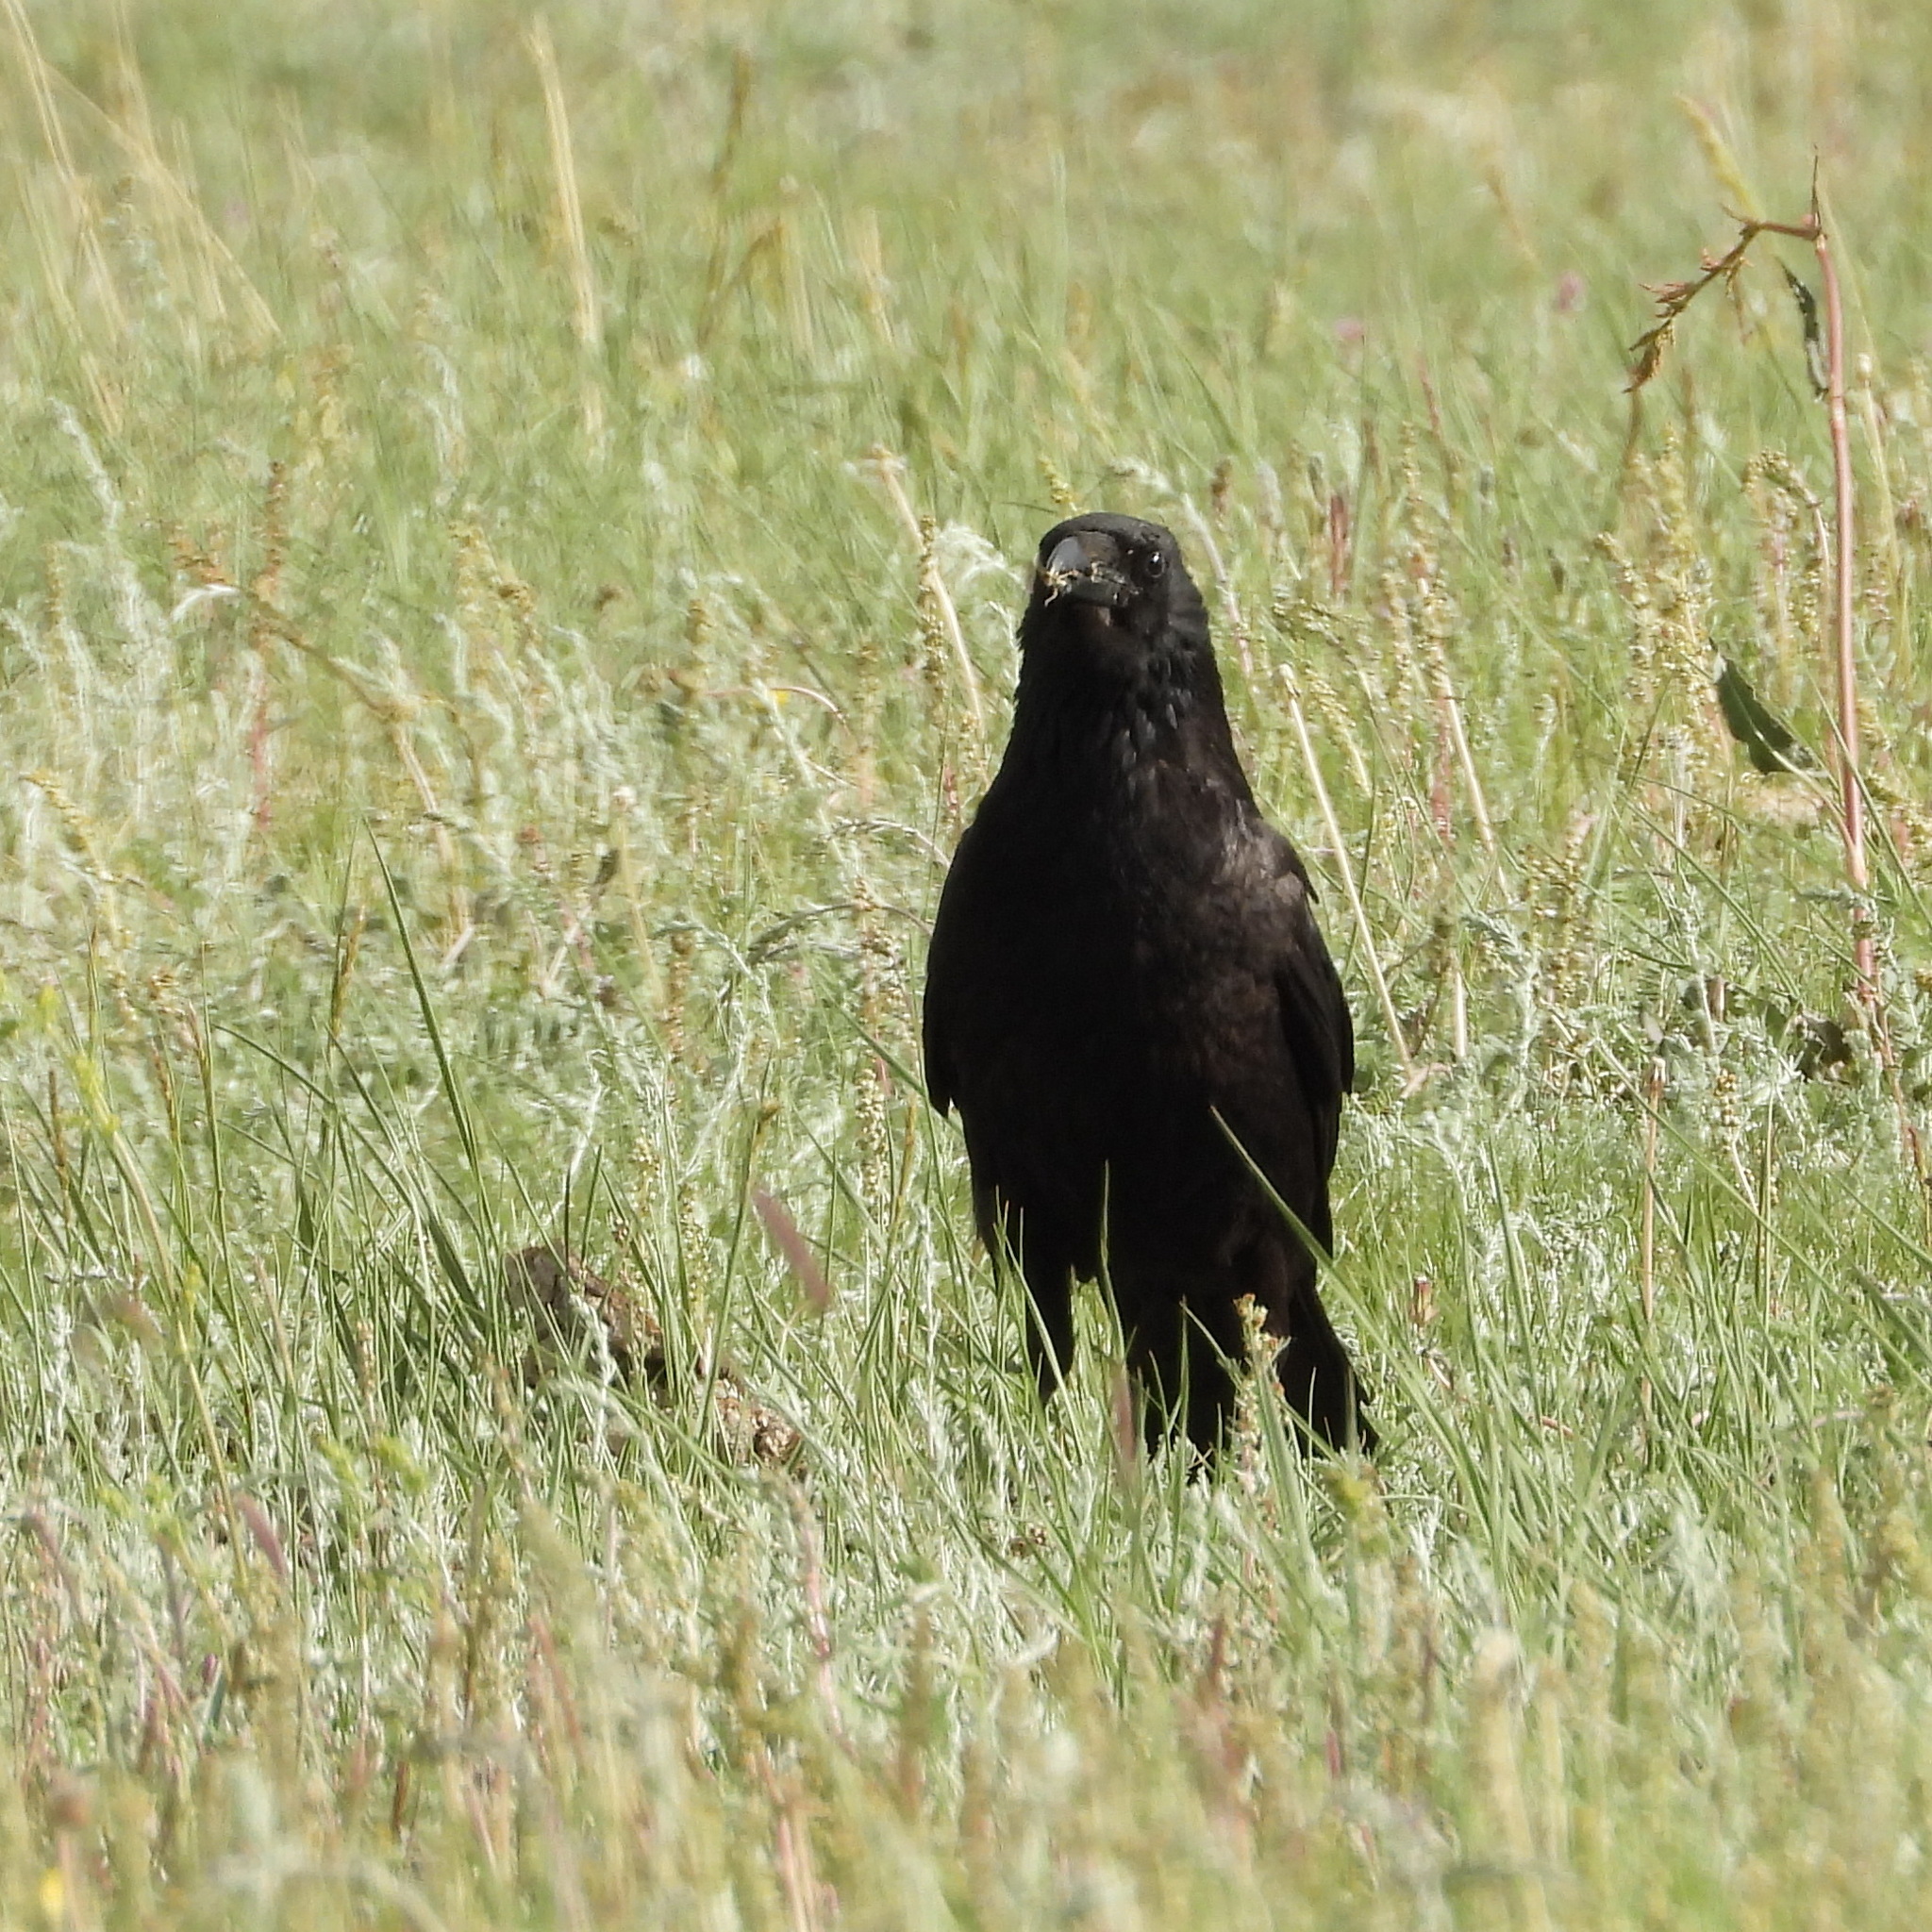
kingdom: Animalia
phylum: Chordata
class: Aves
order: Passeriformes
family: Corvidae
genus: Corvus
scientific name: Corvus corone
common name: Carrion crow
